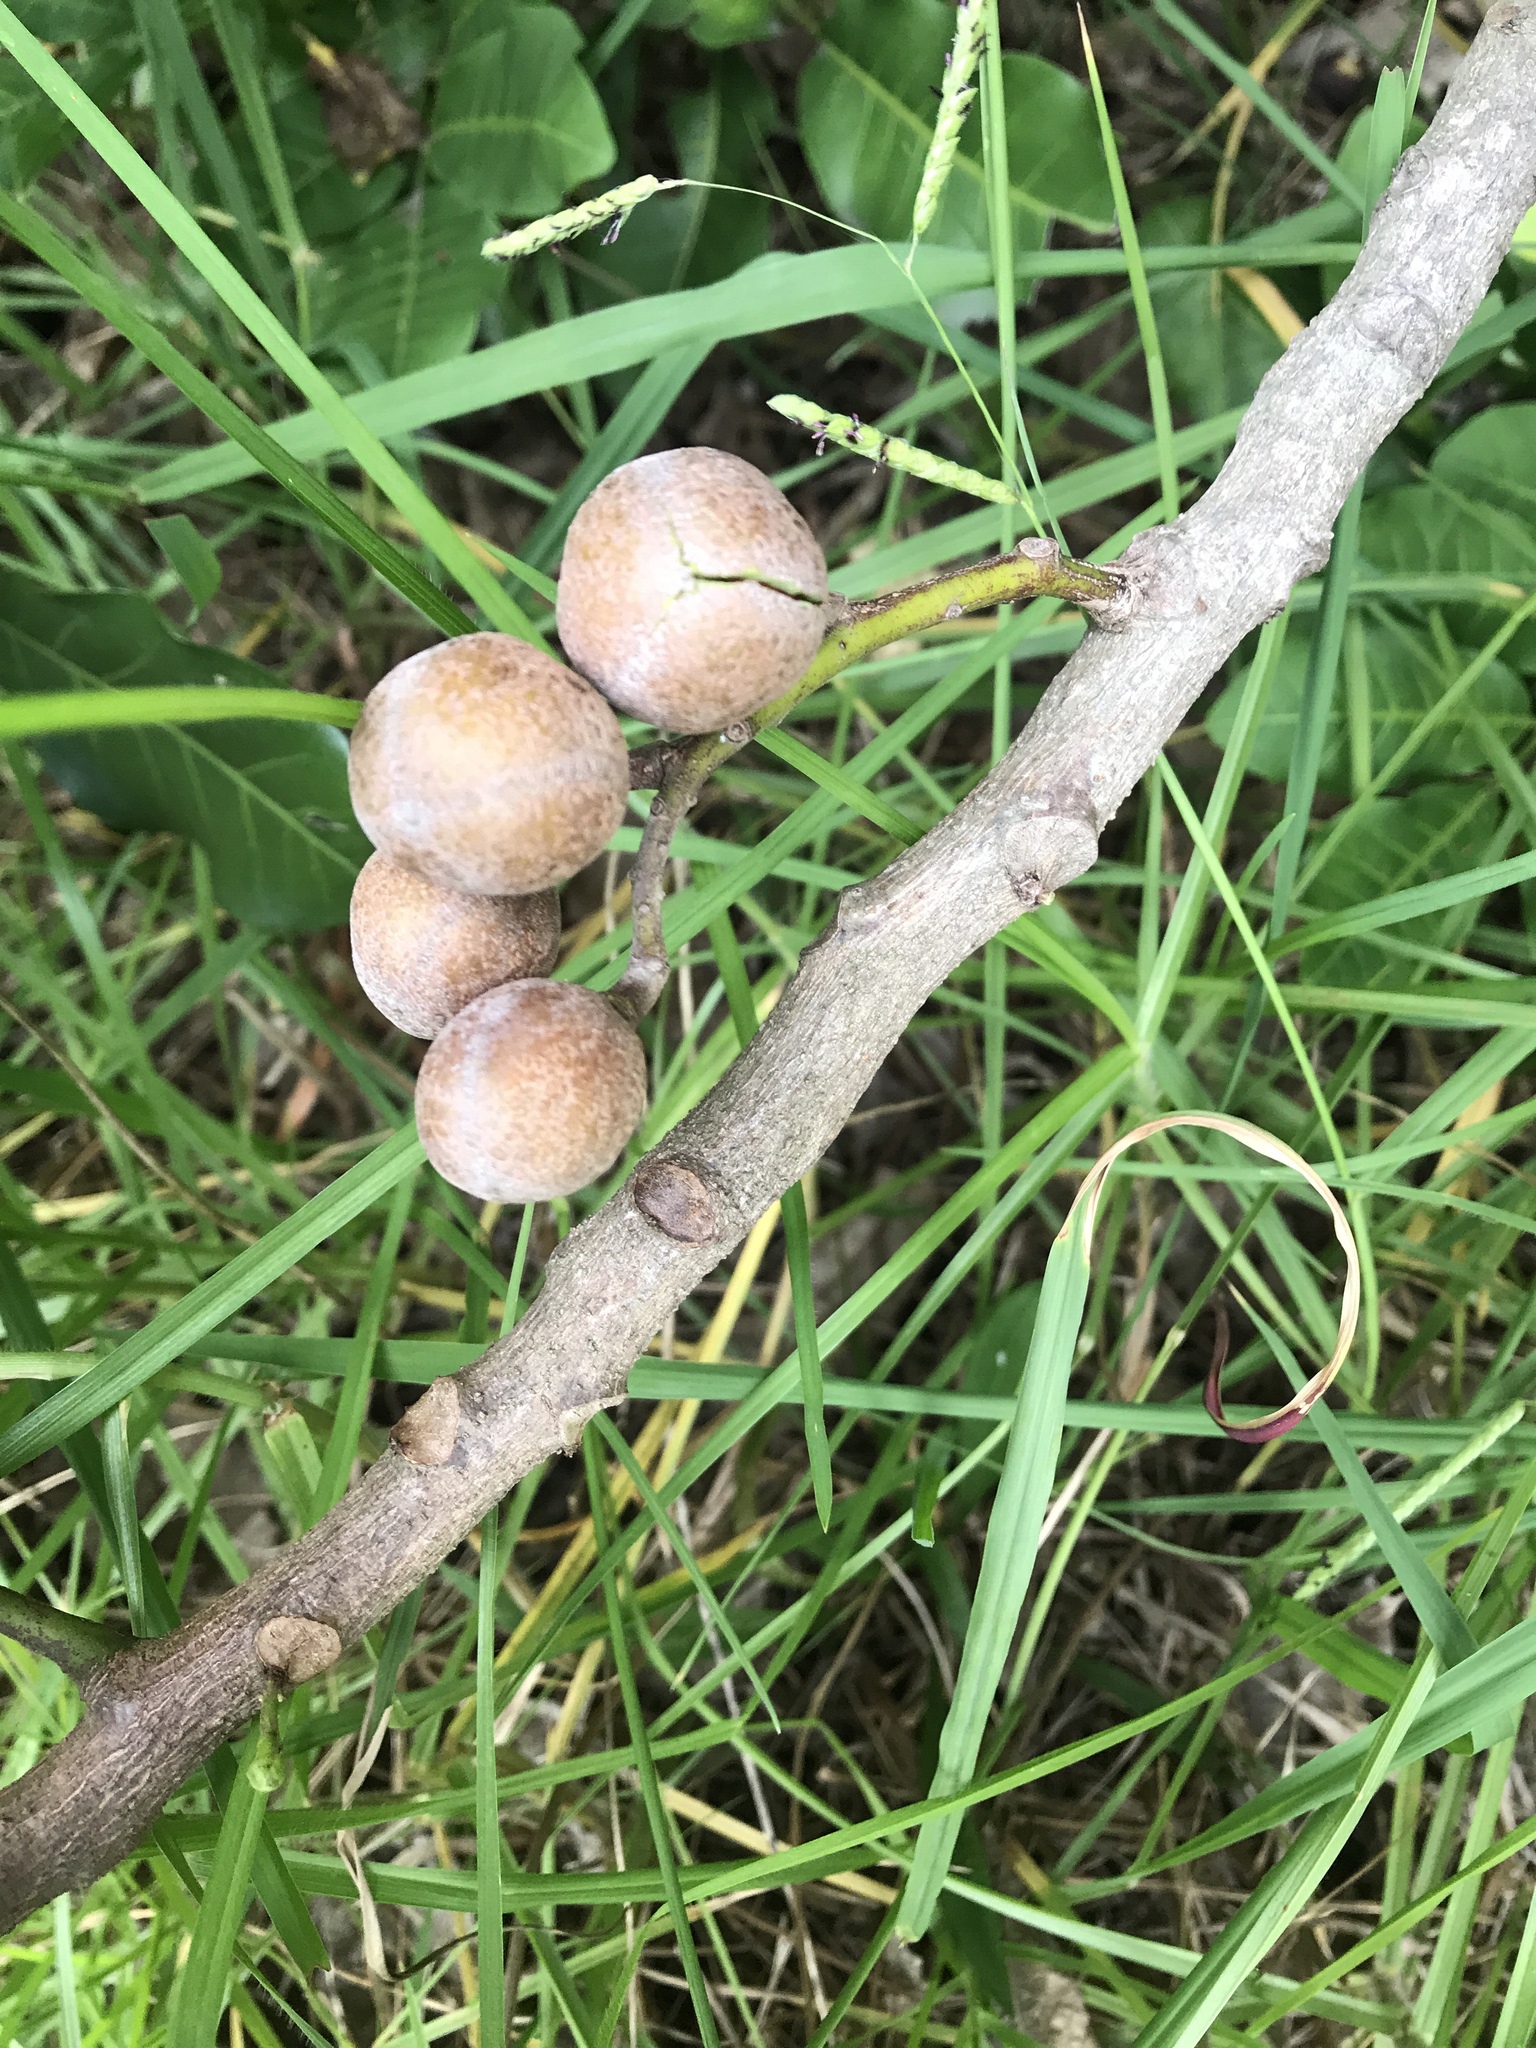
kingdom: Plantae
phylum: Tracheophyta
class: Magnoliopsida
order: Sapindales
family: Meliaceae
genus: Didymocheton
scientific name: Didymocheton spectabilis
